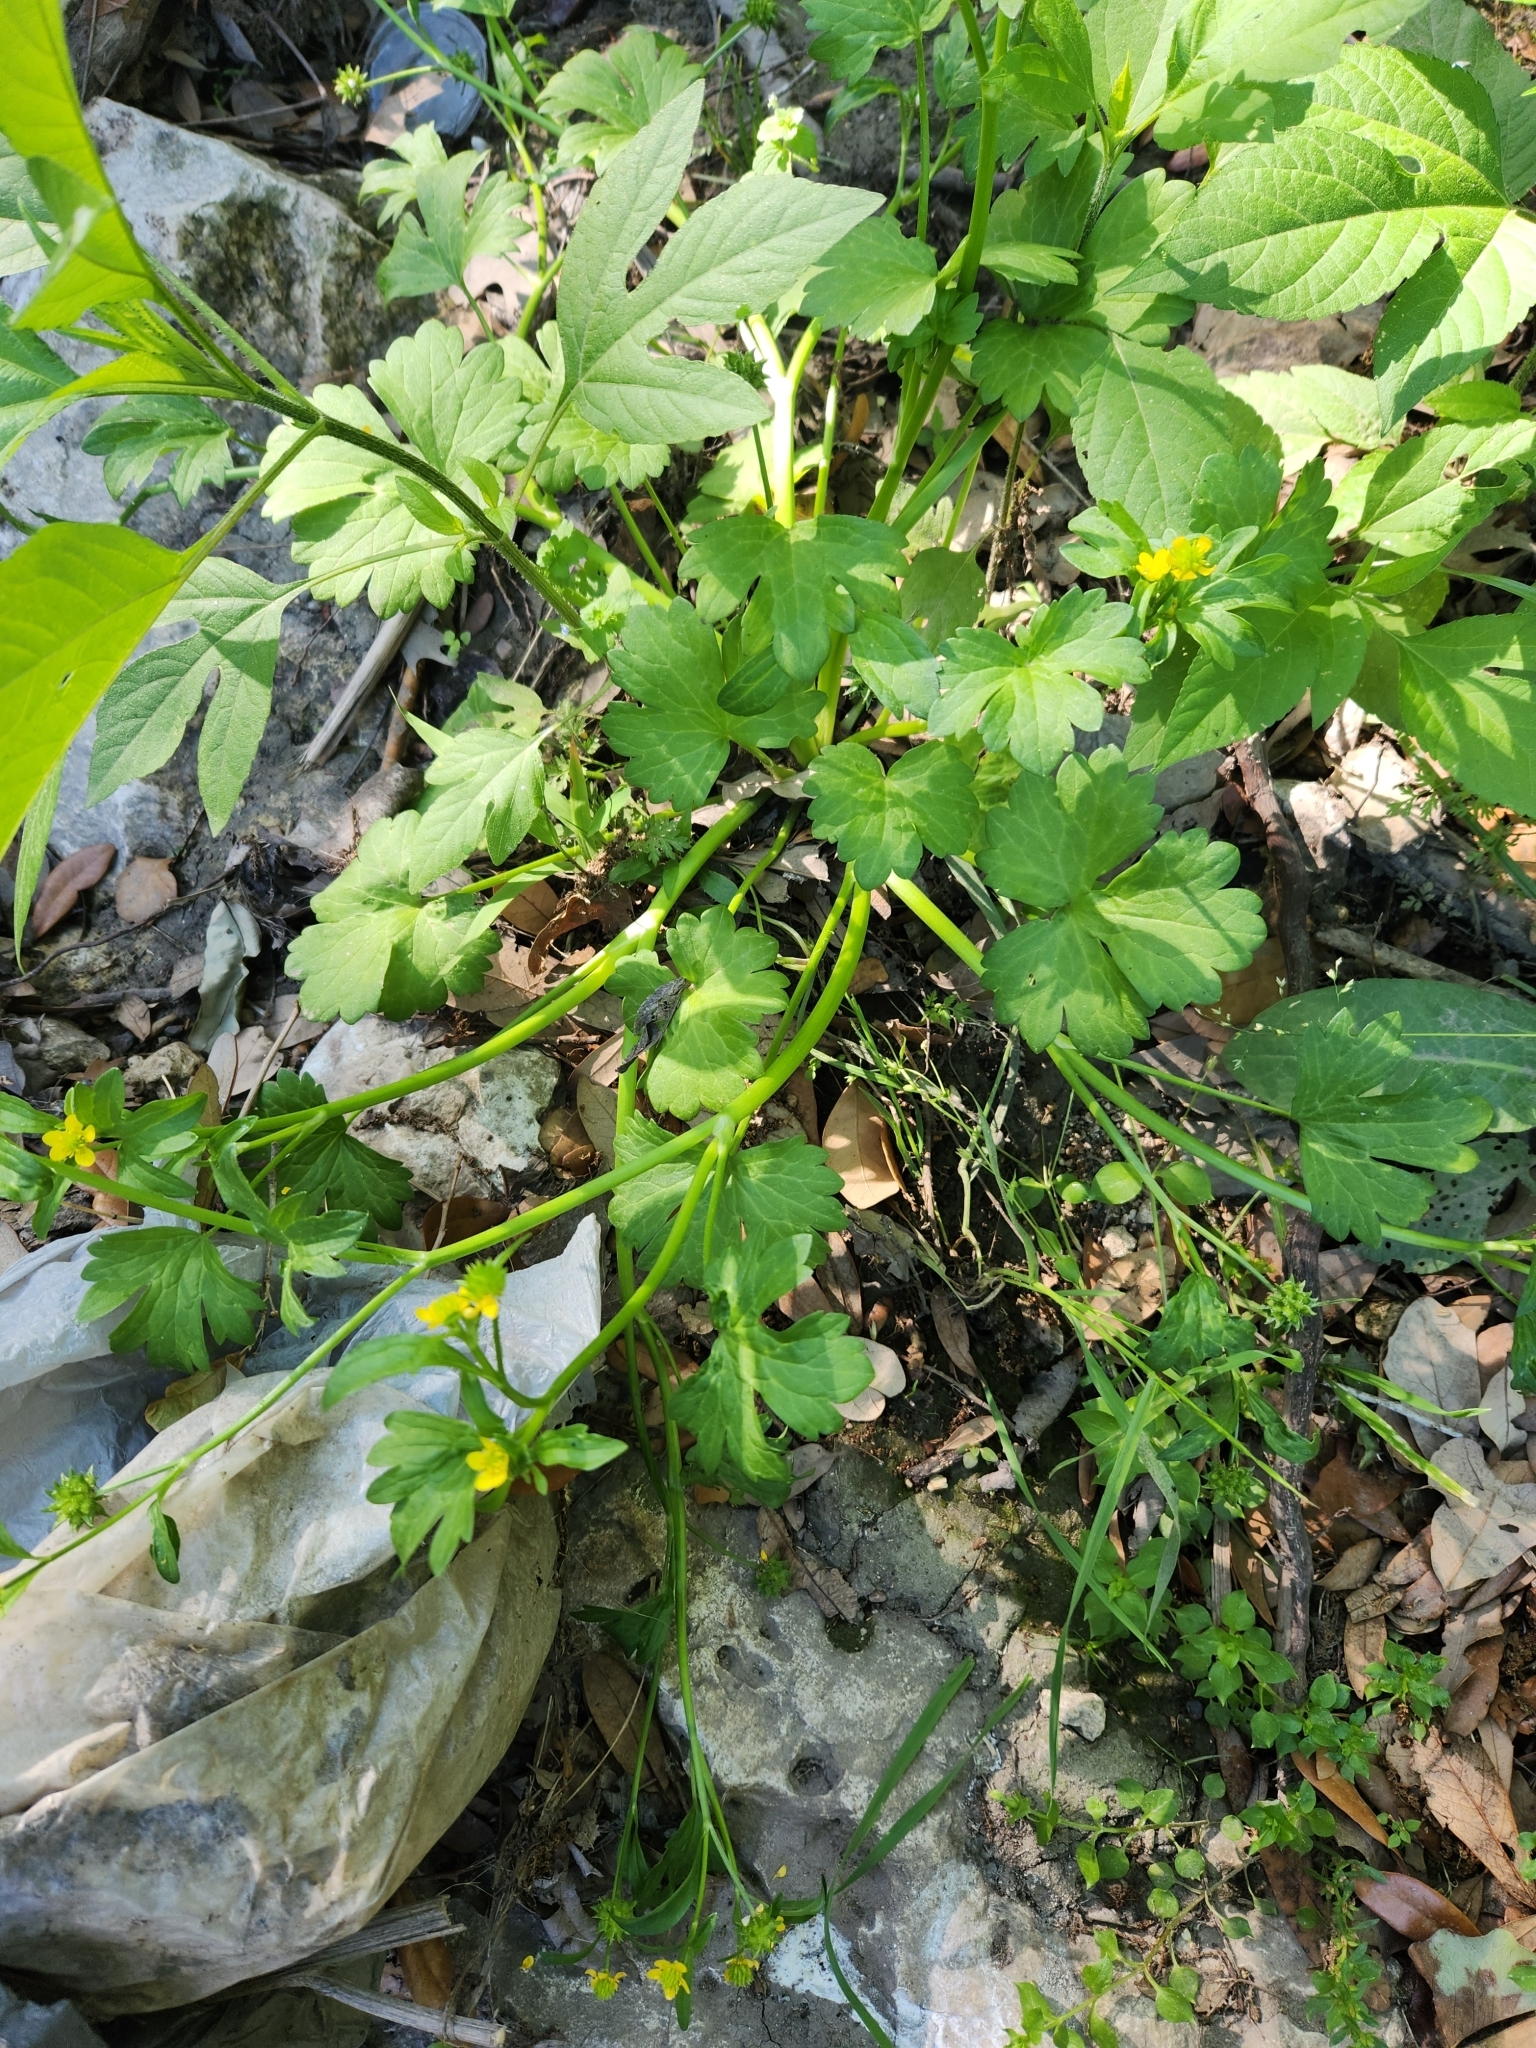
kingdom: Plantae
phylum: Tracheophyta
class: Magnoliopsida
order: Ranunculales
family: Ranunculaceae
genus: Ranunculus
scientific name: Ranunculus muricatus
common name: Rough-fruited buttercup
